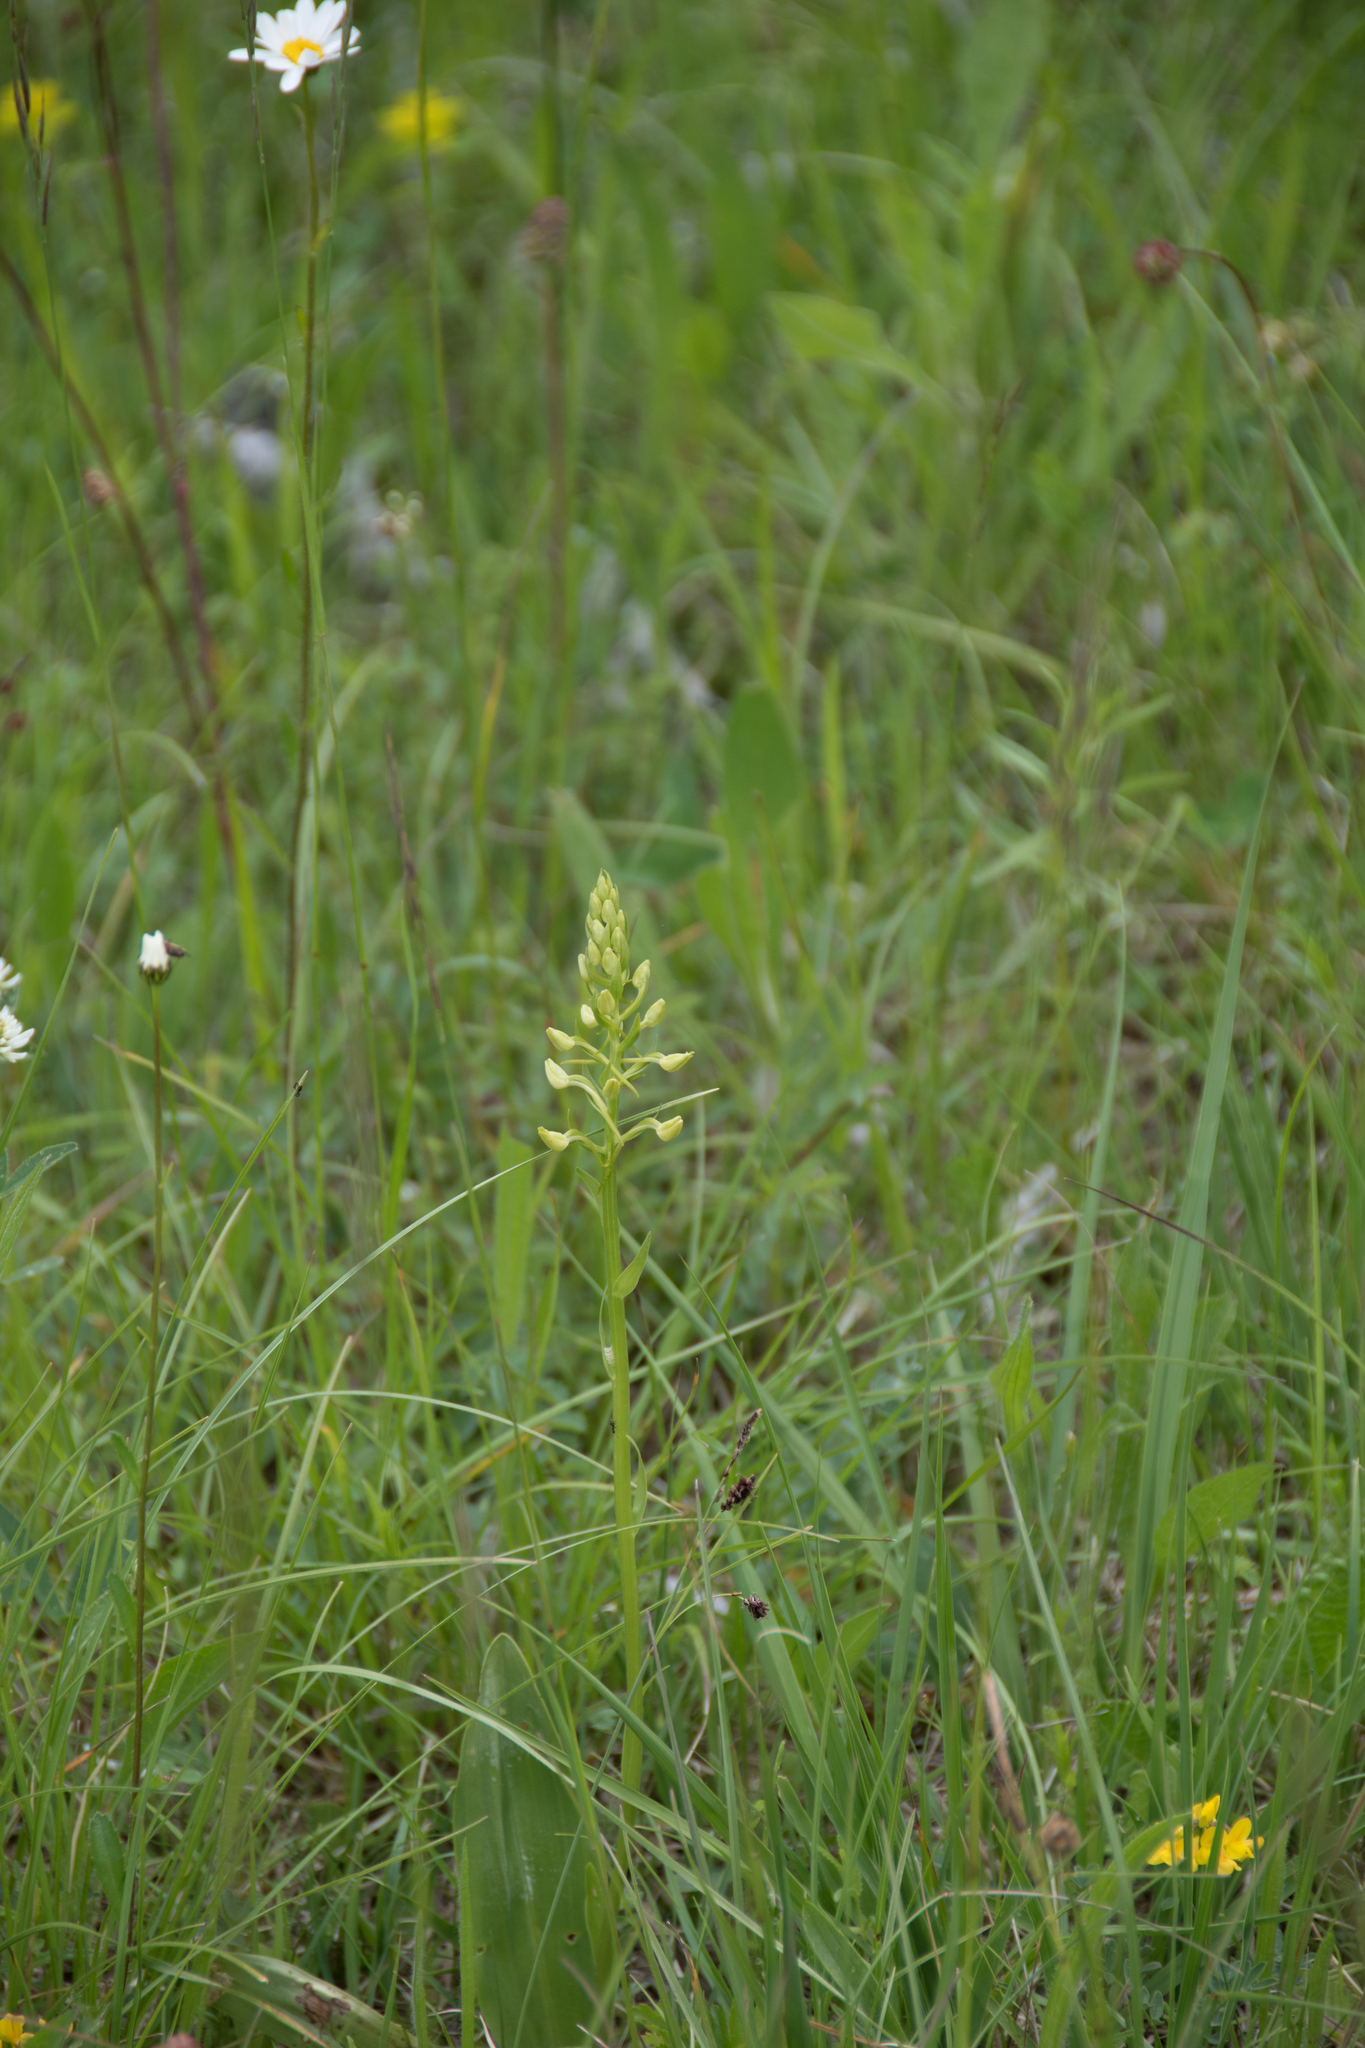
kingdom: Plantae
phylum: Tracheophyta
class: Liliopsida
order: Asparagales
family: Orchidaceae
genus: Platanthera
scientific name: Platanthera bifolia
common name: Lesser butterfly-orchid
